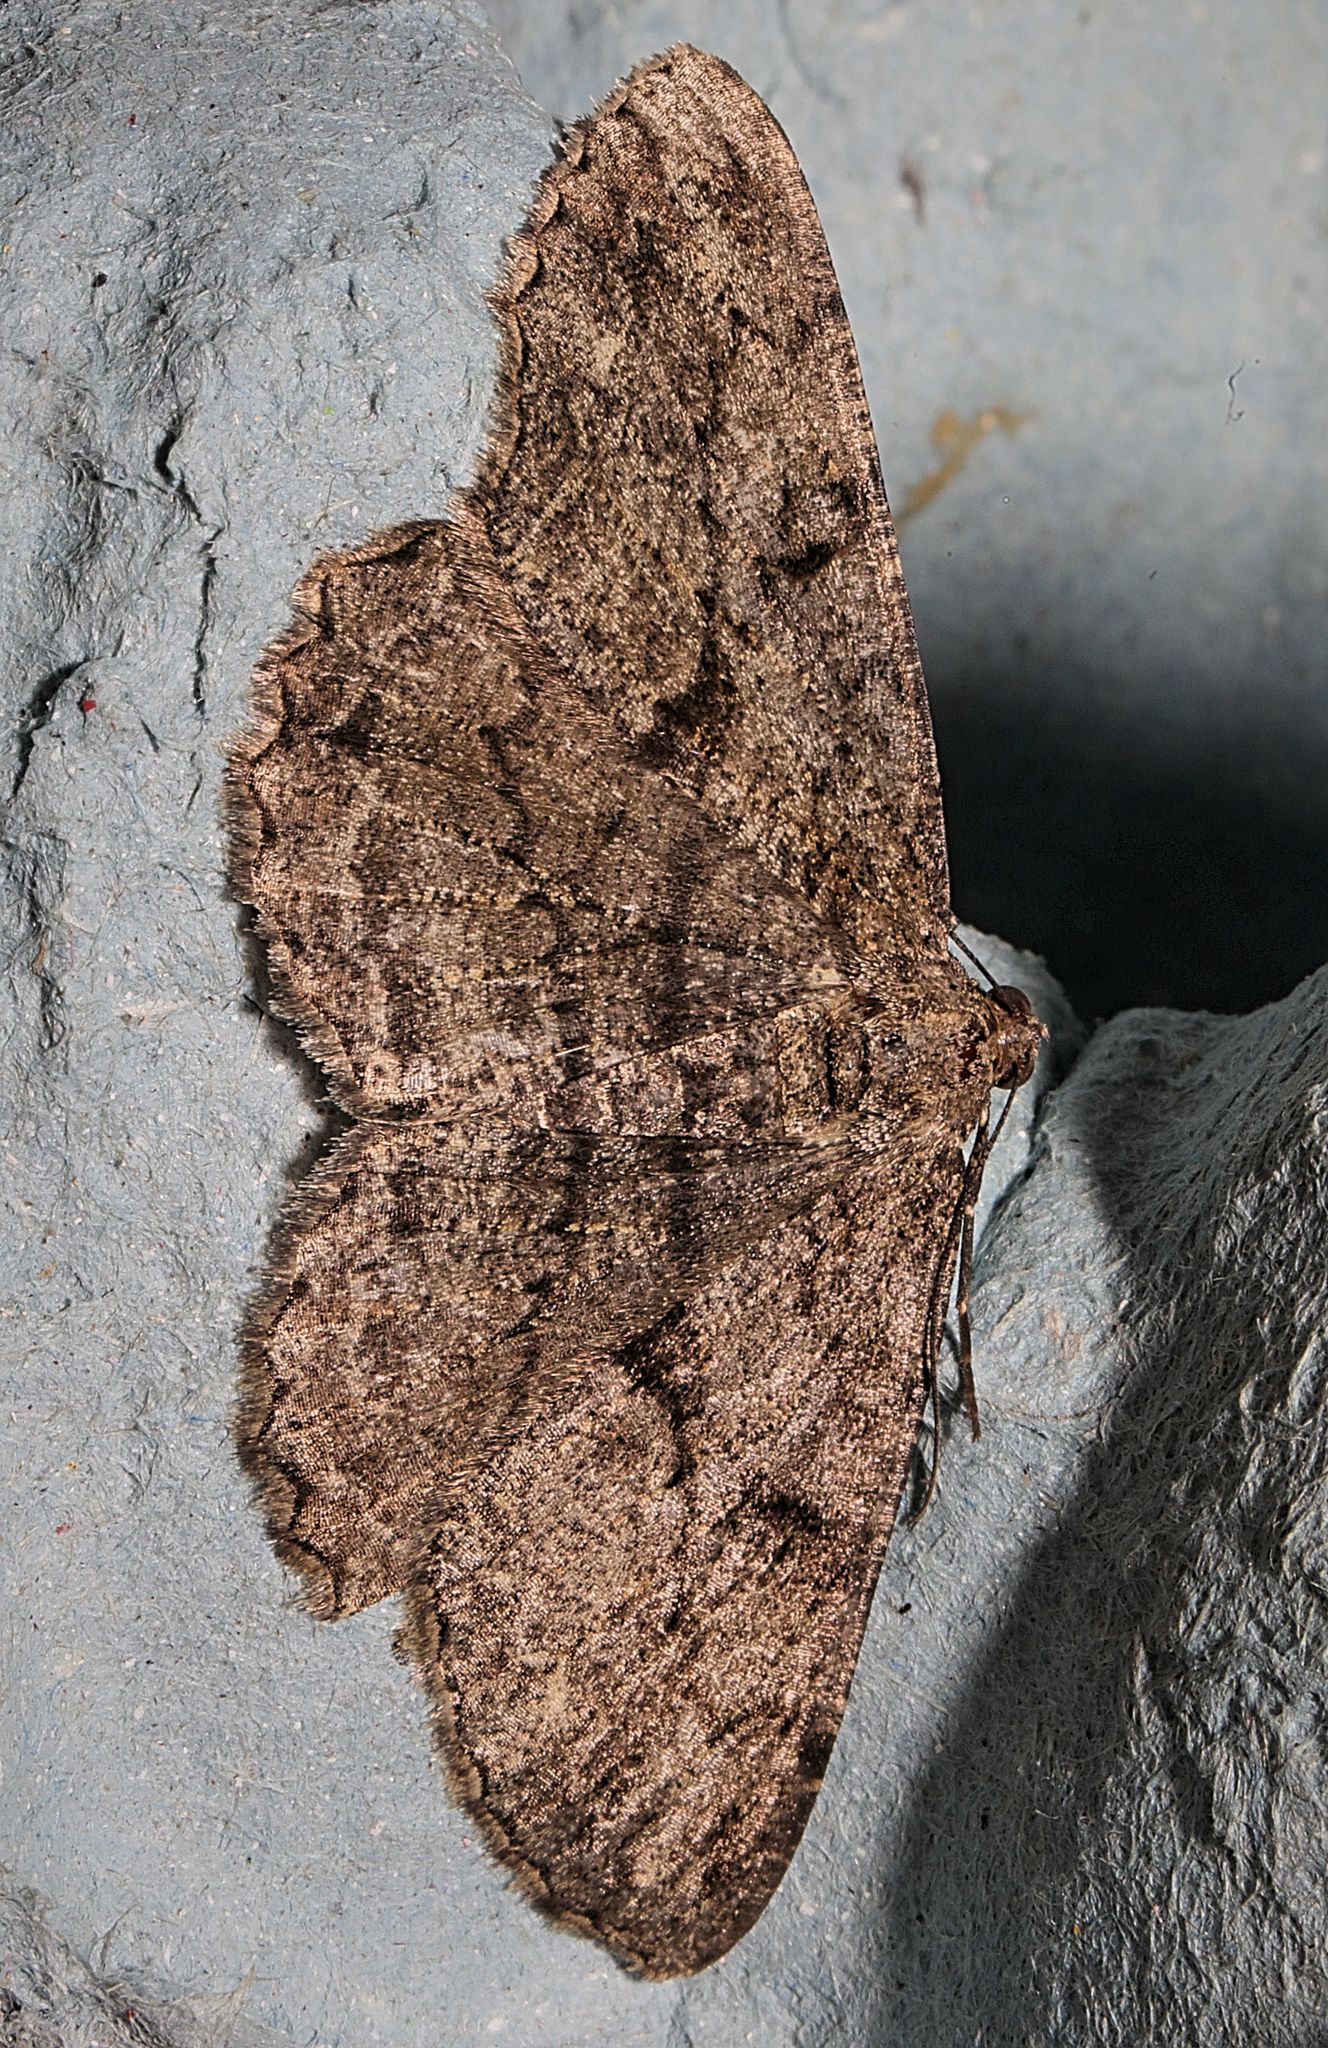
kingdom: Animalia
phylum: Arthropoda
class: Insecta
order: Lepidoptera
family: Geometridae
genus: Peribatodes
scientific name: Peribatodes rhomboidaria
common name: Willow beauty
